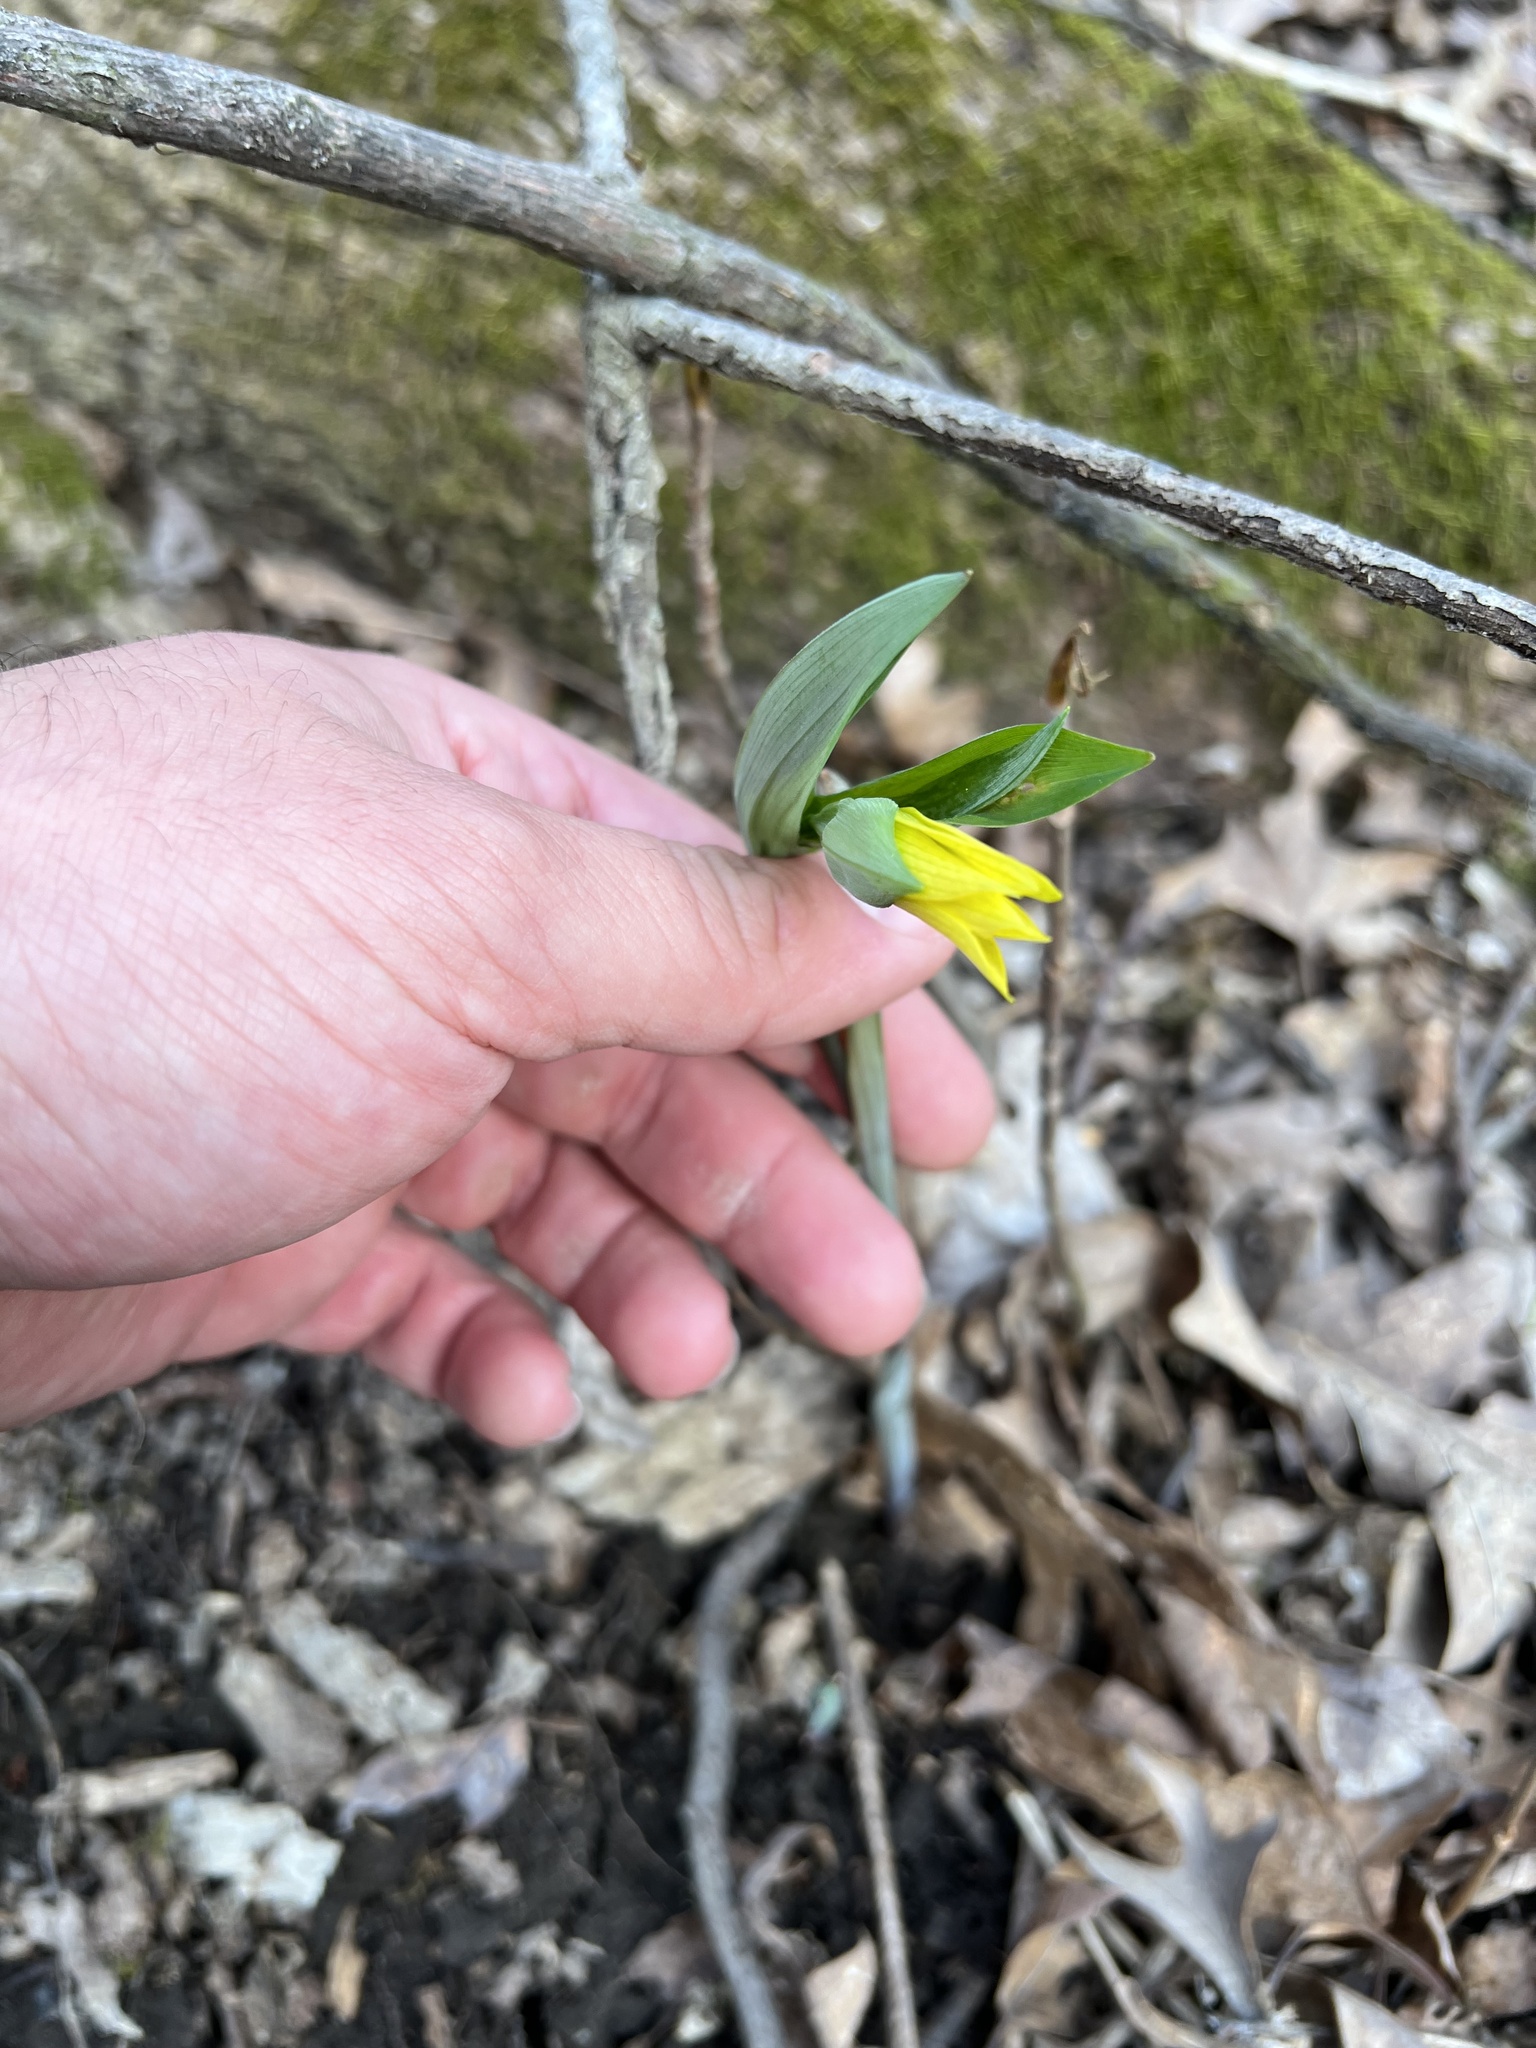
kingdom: Plantae
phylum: Tracheophyta
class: Liliopsida
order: Liliales
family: Colchicaceae
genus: Uvularia
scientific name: Uvularia grandiflora
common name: Bellwort
